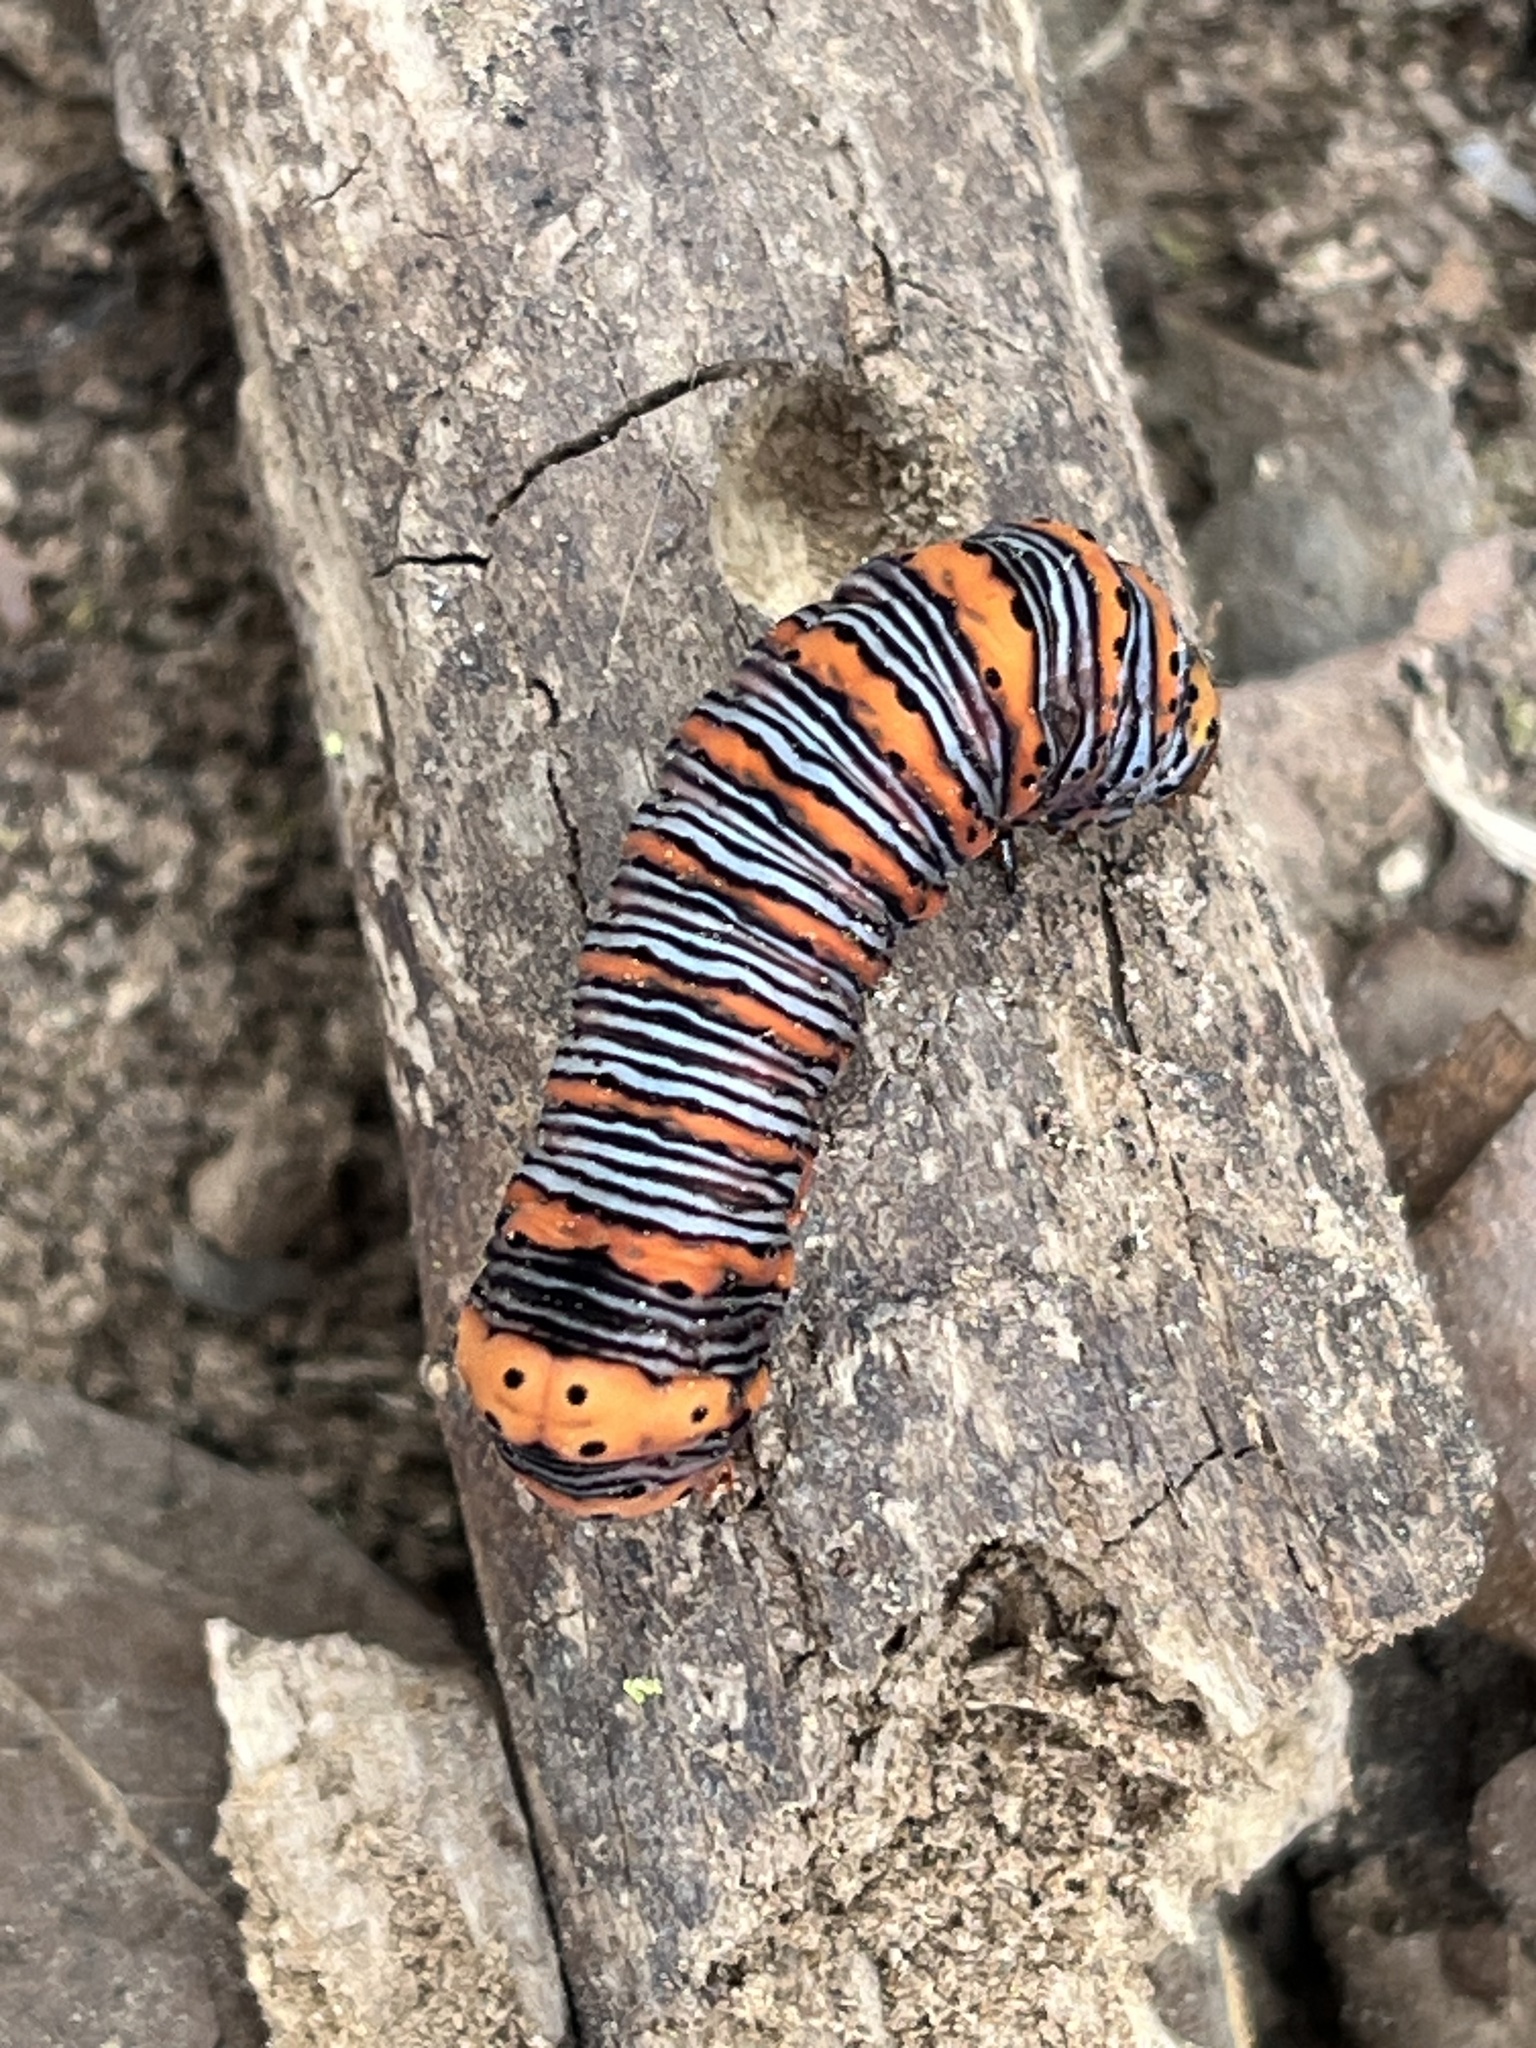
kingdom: Animalia
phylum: Arthropoda
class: Insecta
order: Lepidoptera
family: Noctuidae
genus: Eudryas
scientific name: Eudryas grata
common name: Beautiful wood-nymph
